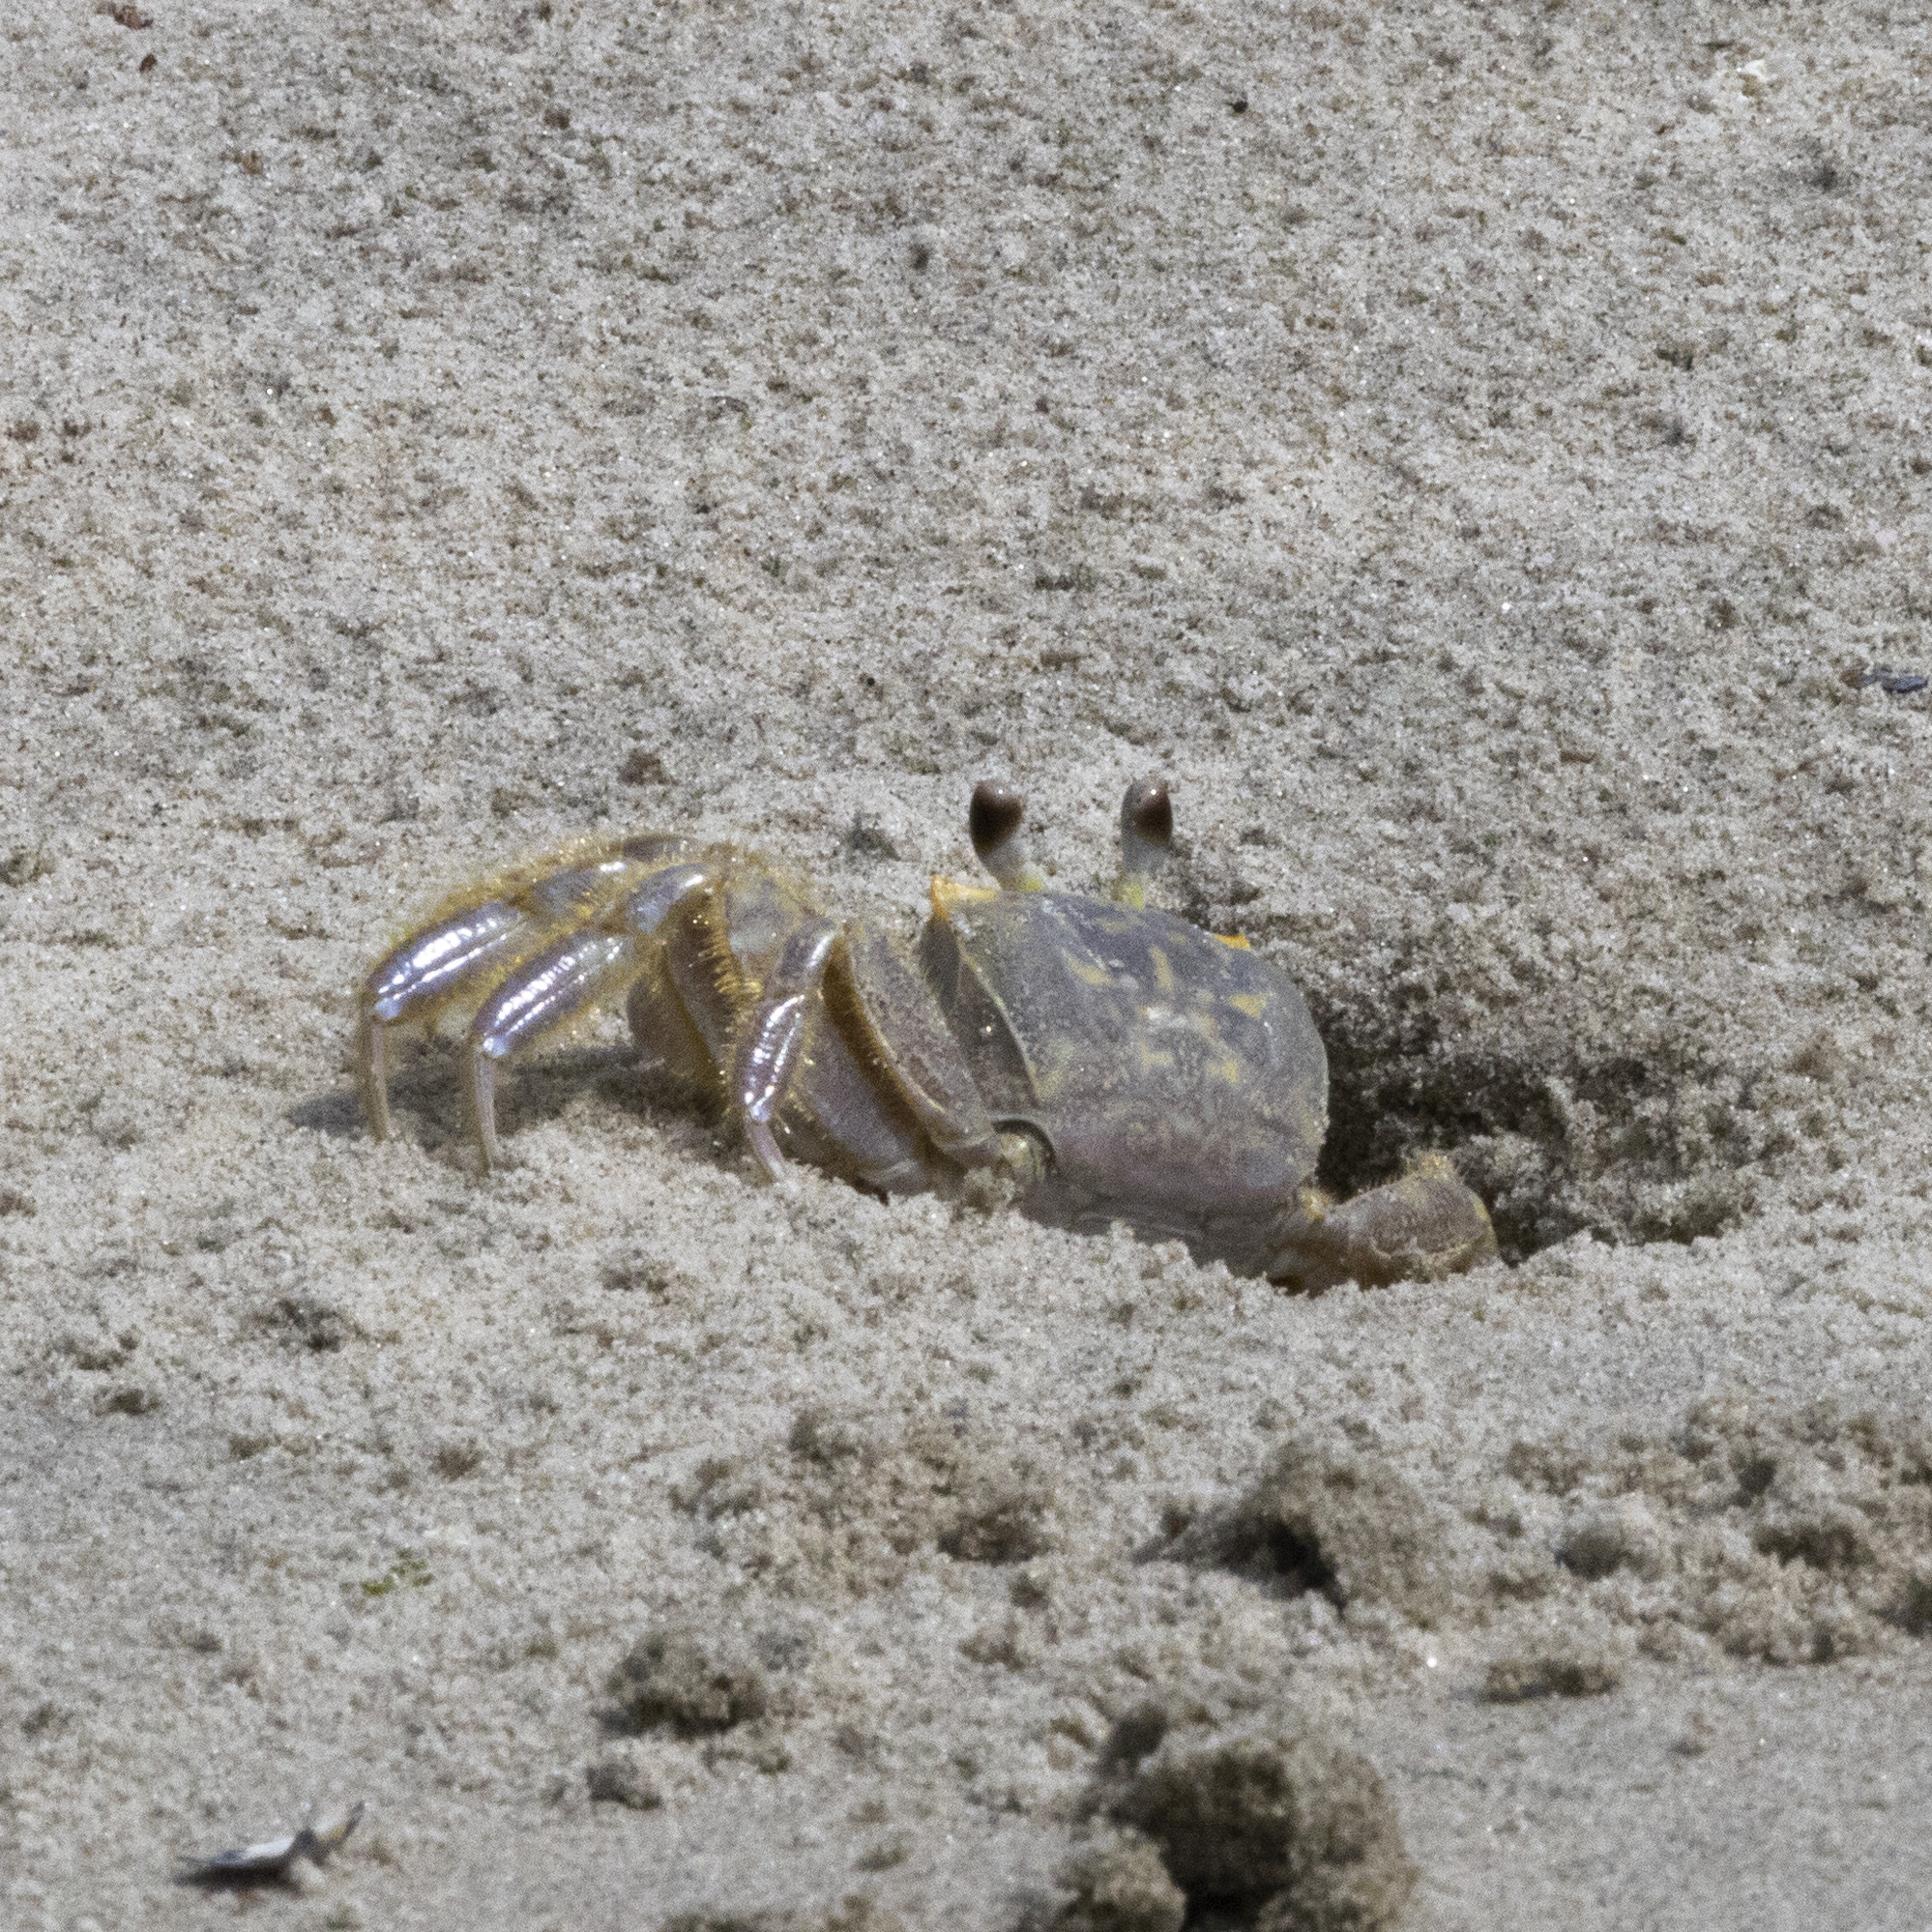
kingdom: Animalia
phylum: Arthropoda
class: Malacostraca
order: Decapoda
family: Ocypodidae
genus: Ocypode
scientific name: Ocypode quadrata
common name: Ghost crab
